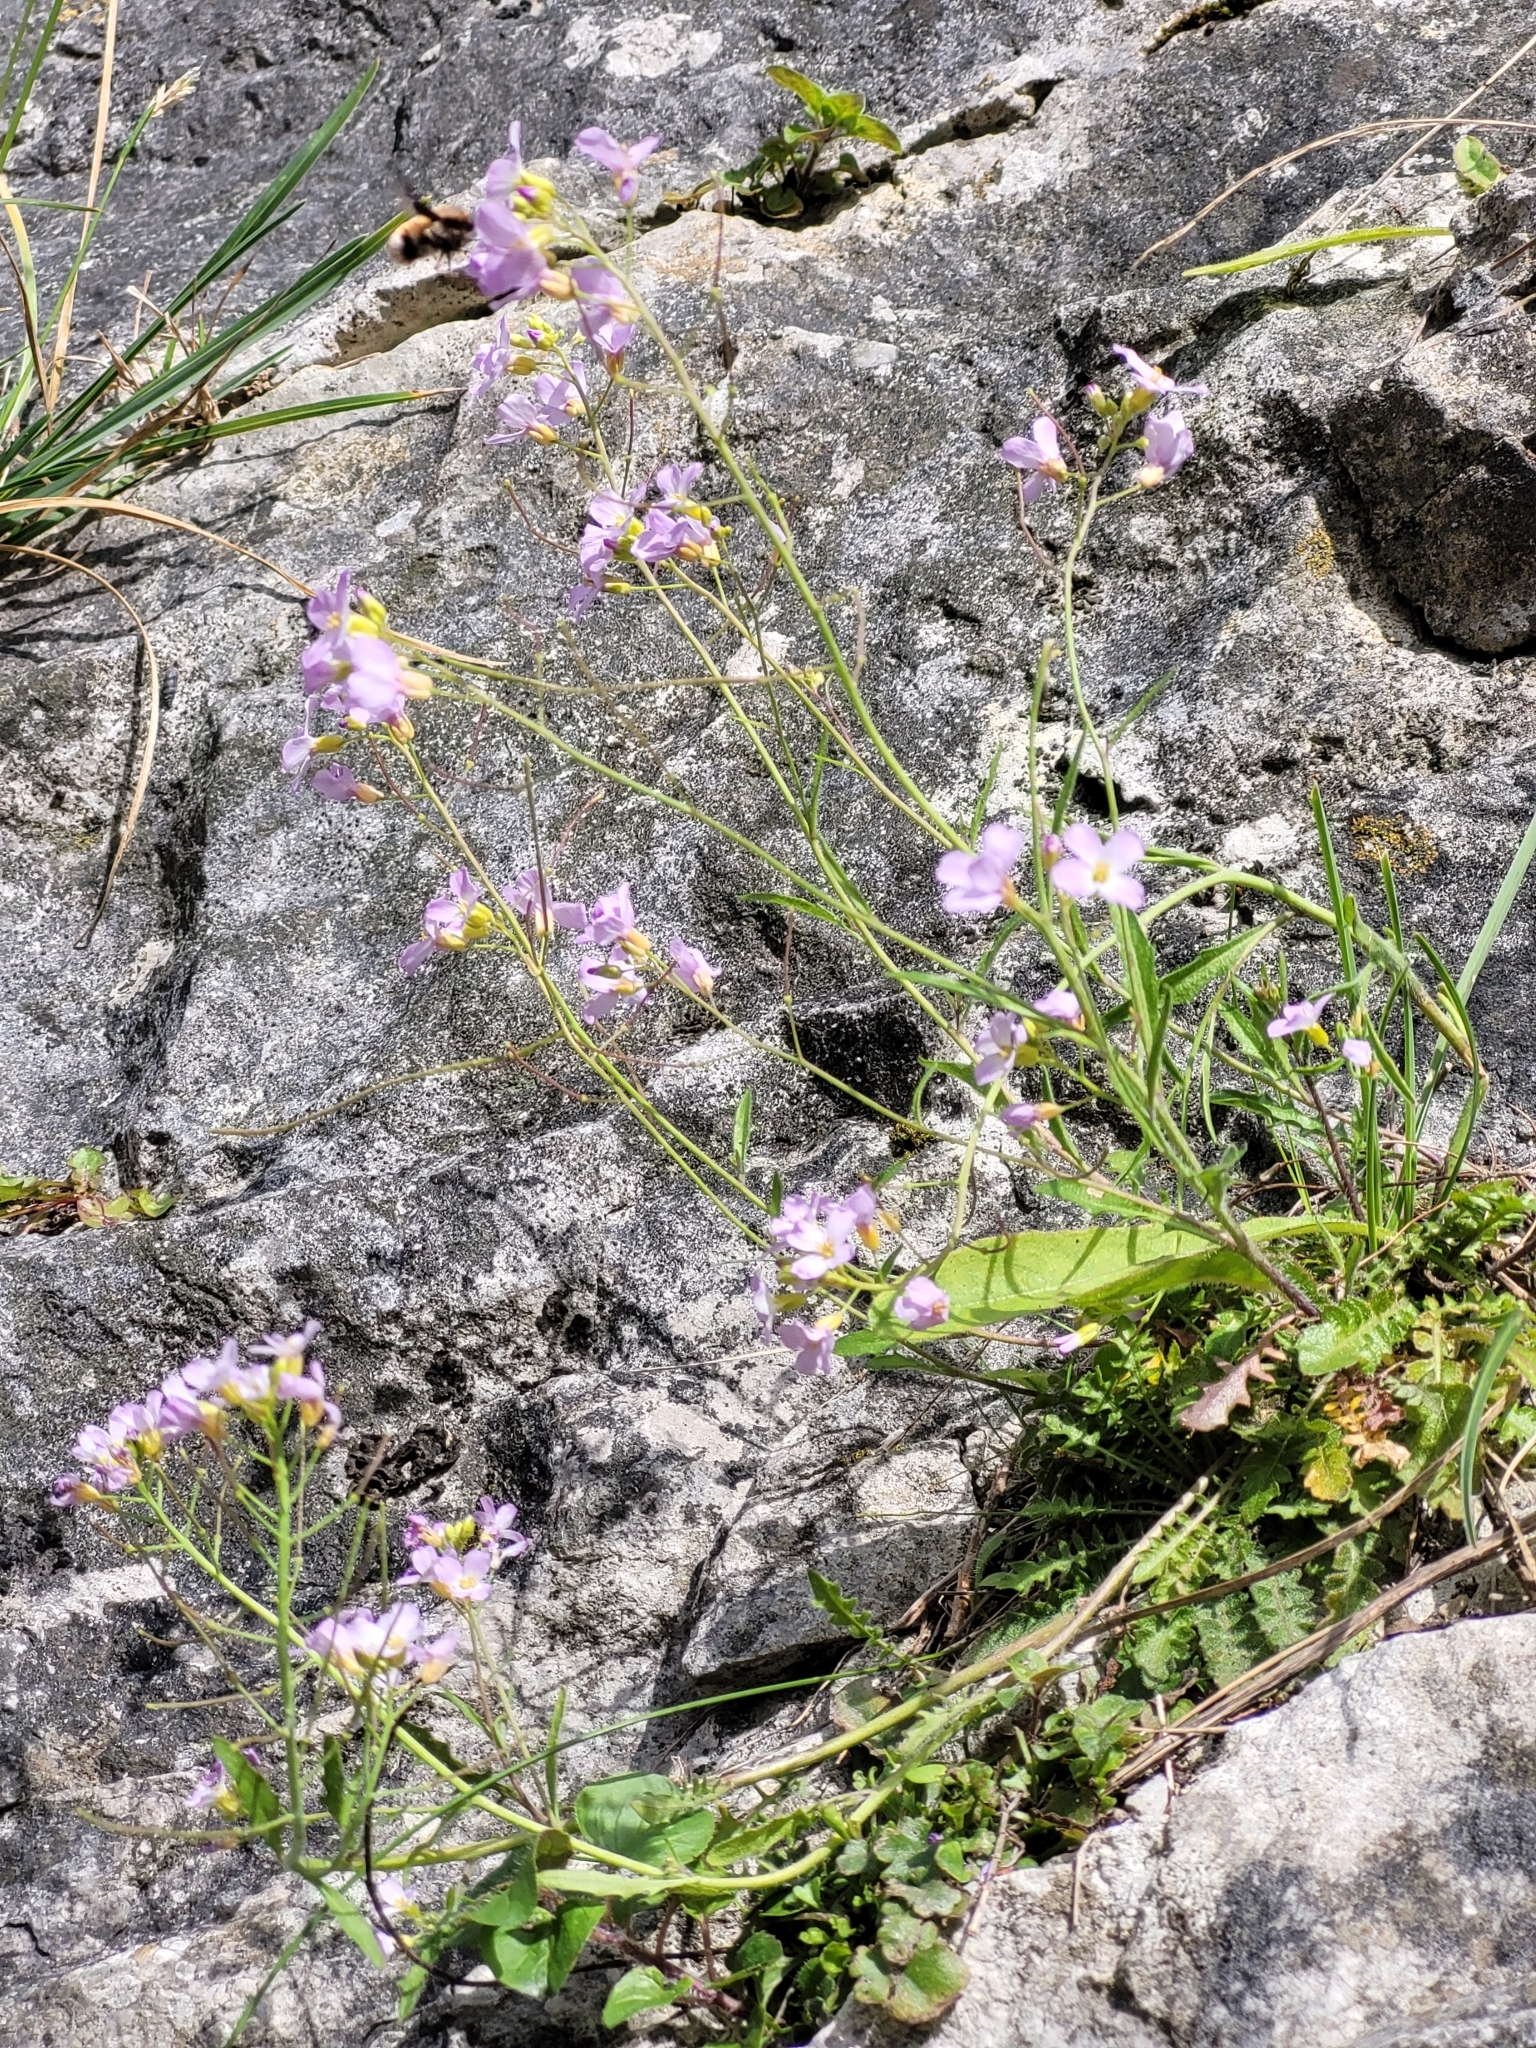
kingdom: Plantae
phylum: Tracheophyta
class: Magnoliopsida
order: Brassicales
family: Brassicaceae
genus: Arabidopsis
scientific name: Arabidopsis arenosa
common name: Sand rock-cress
